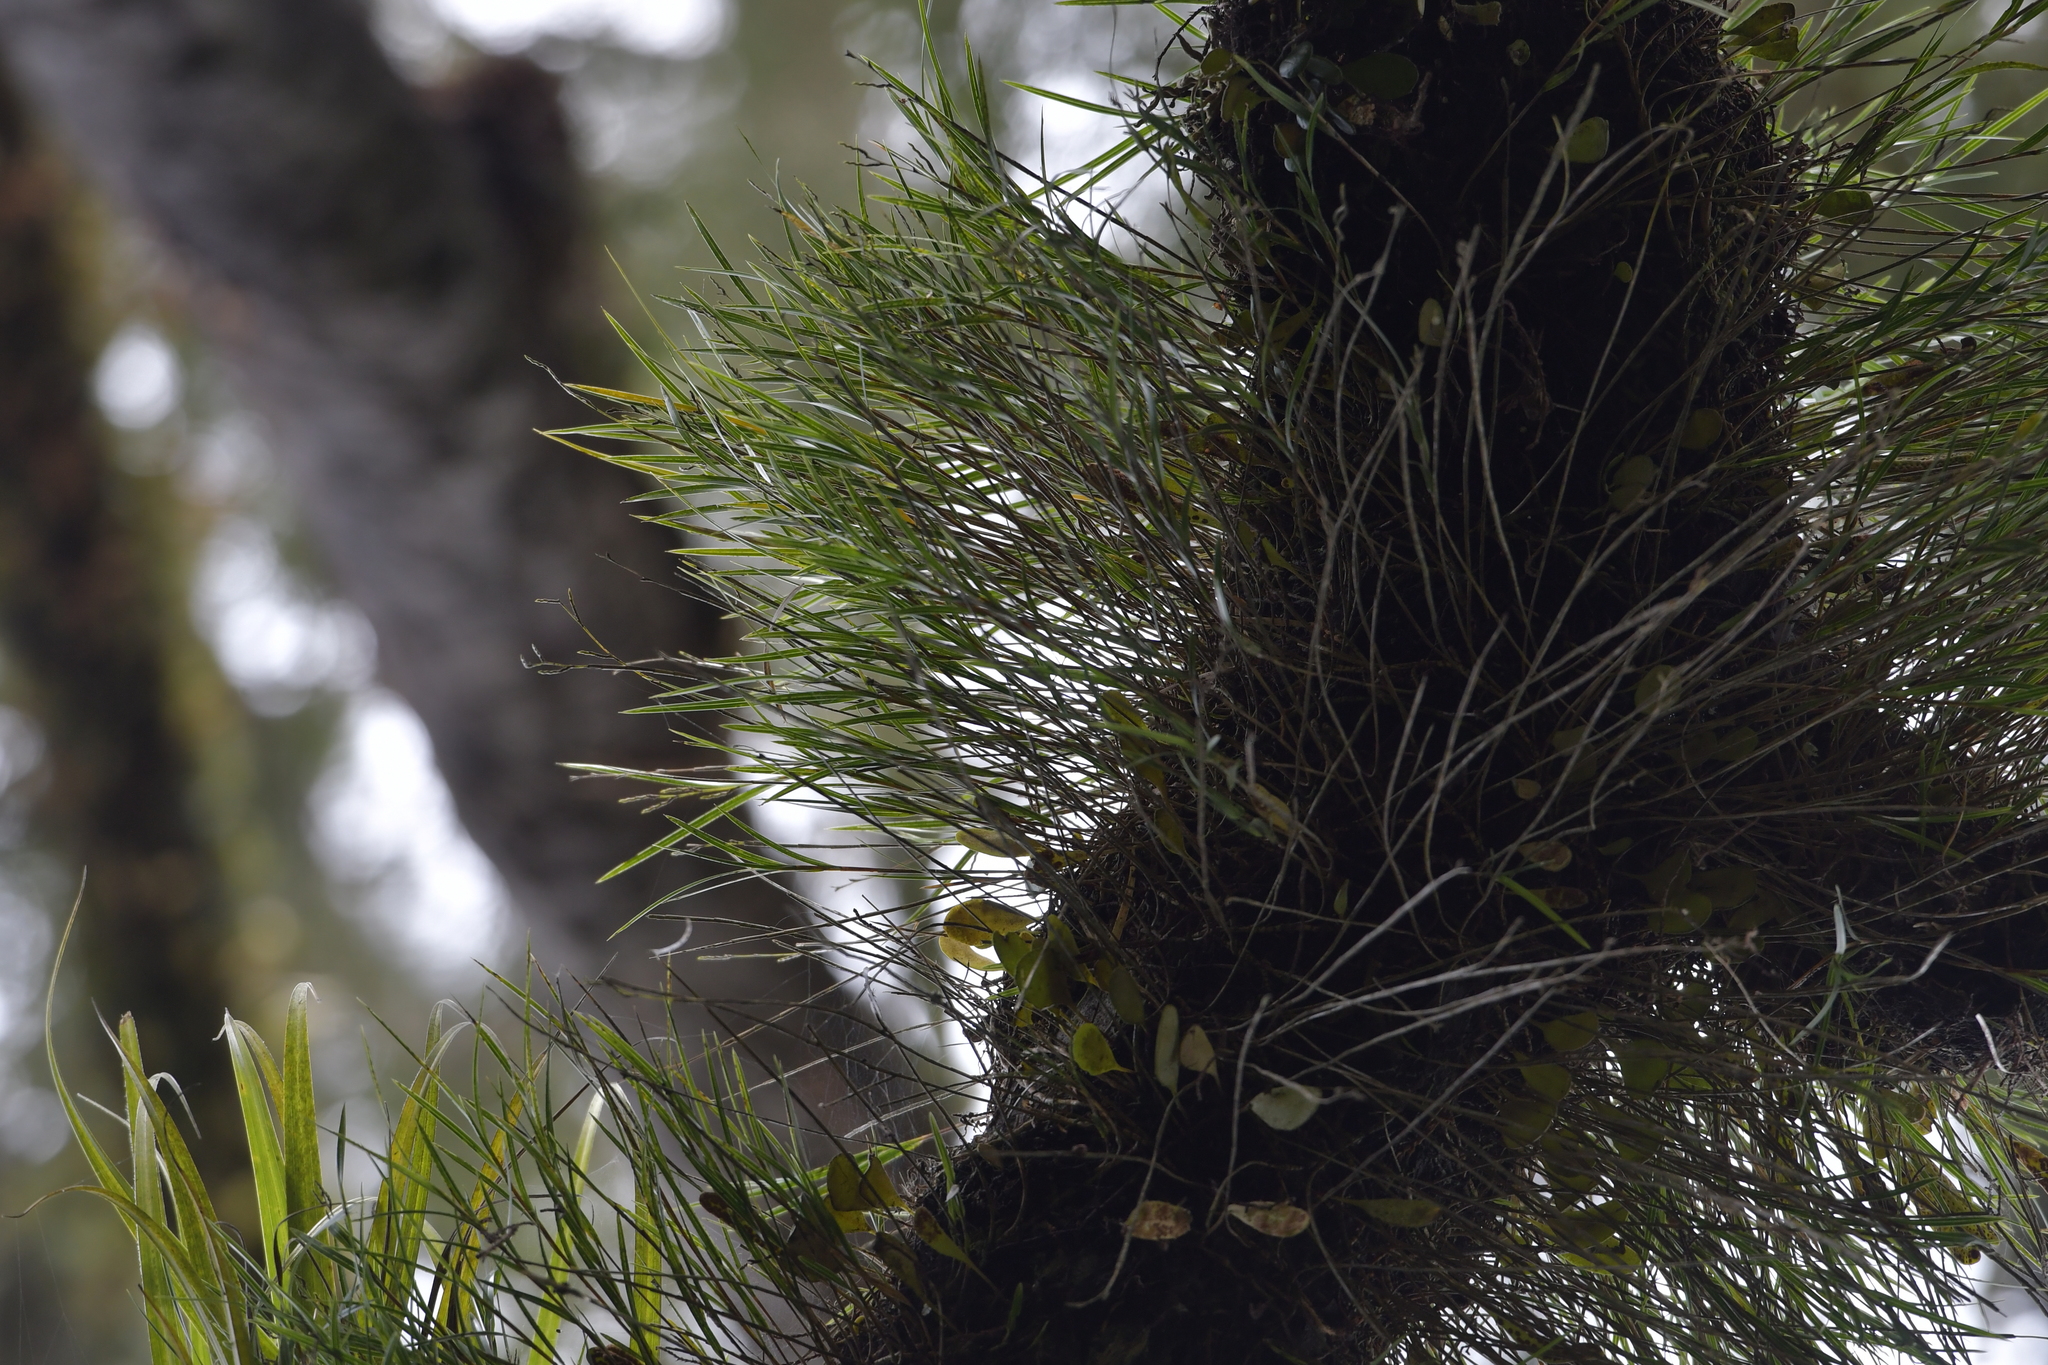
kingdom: Plantae
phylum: Tracheophyta
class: Liliopsida
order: Asparagales
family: Orchidaceae
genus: Earina
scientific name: Earina mucronata
